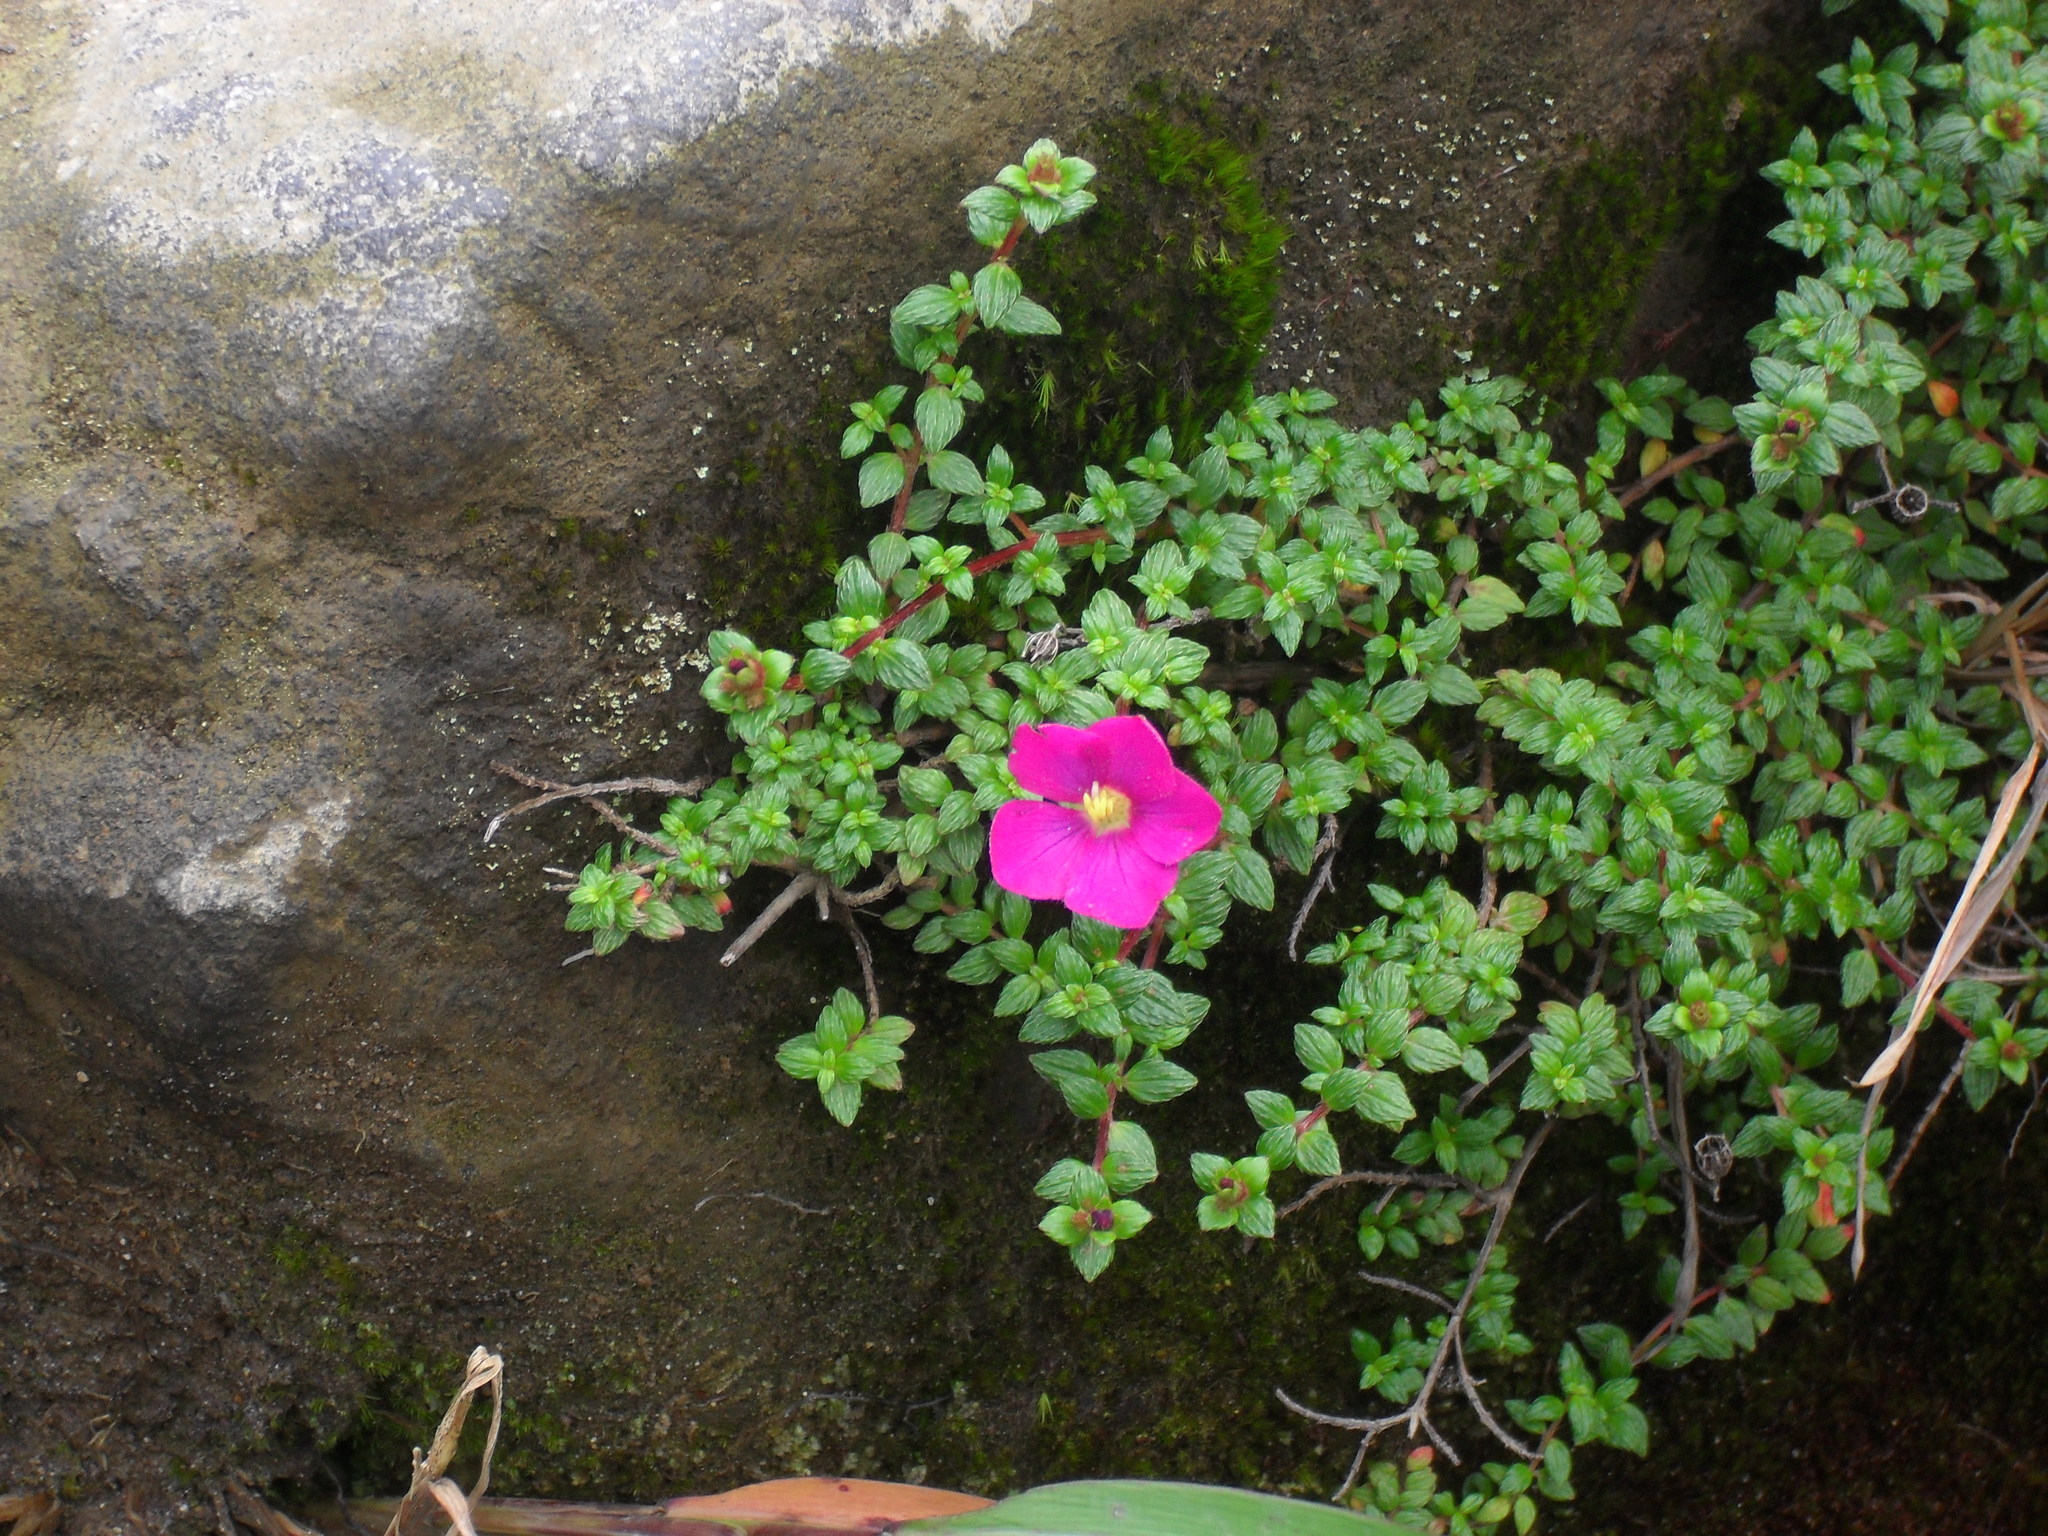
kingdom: Plantae
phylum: Tracheophyta
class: Magnoliopsida
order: Myrtales
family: Melastomataceae
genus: Chaetogastra
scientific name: Chaetogastra ornata
